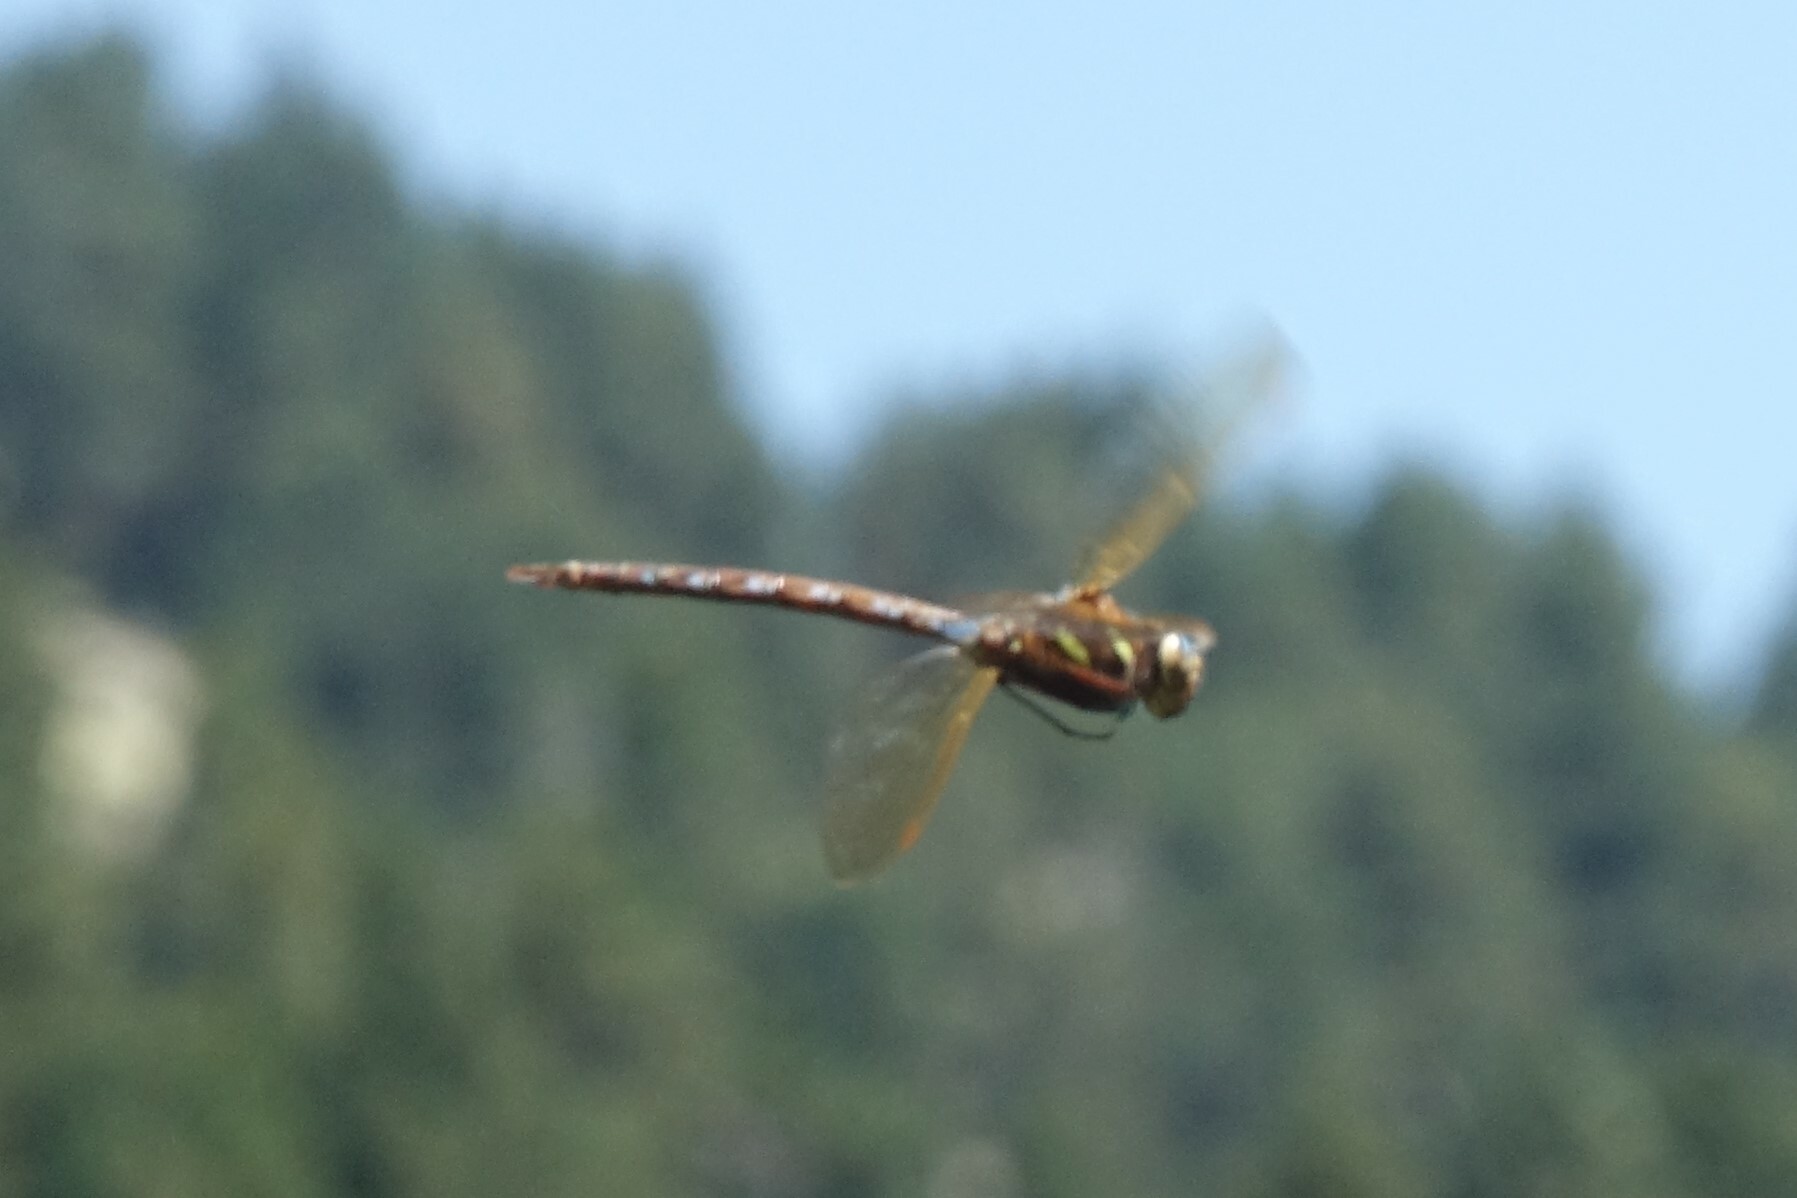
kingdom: Animalia
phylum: Arthropoda
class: Insecta
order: Odonata
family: Aeshnidae
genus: Aeshna
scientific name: Aeshna grandis
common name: Brown hawker
